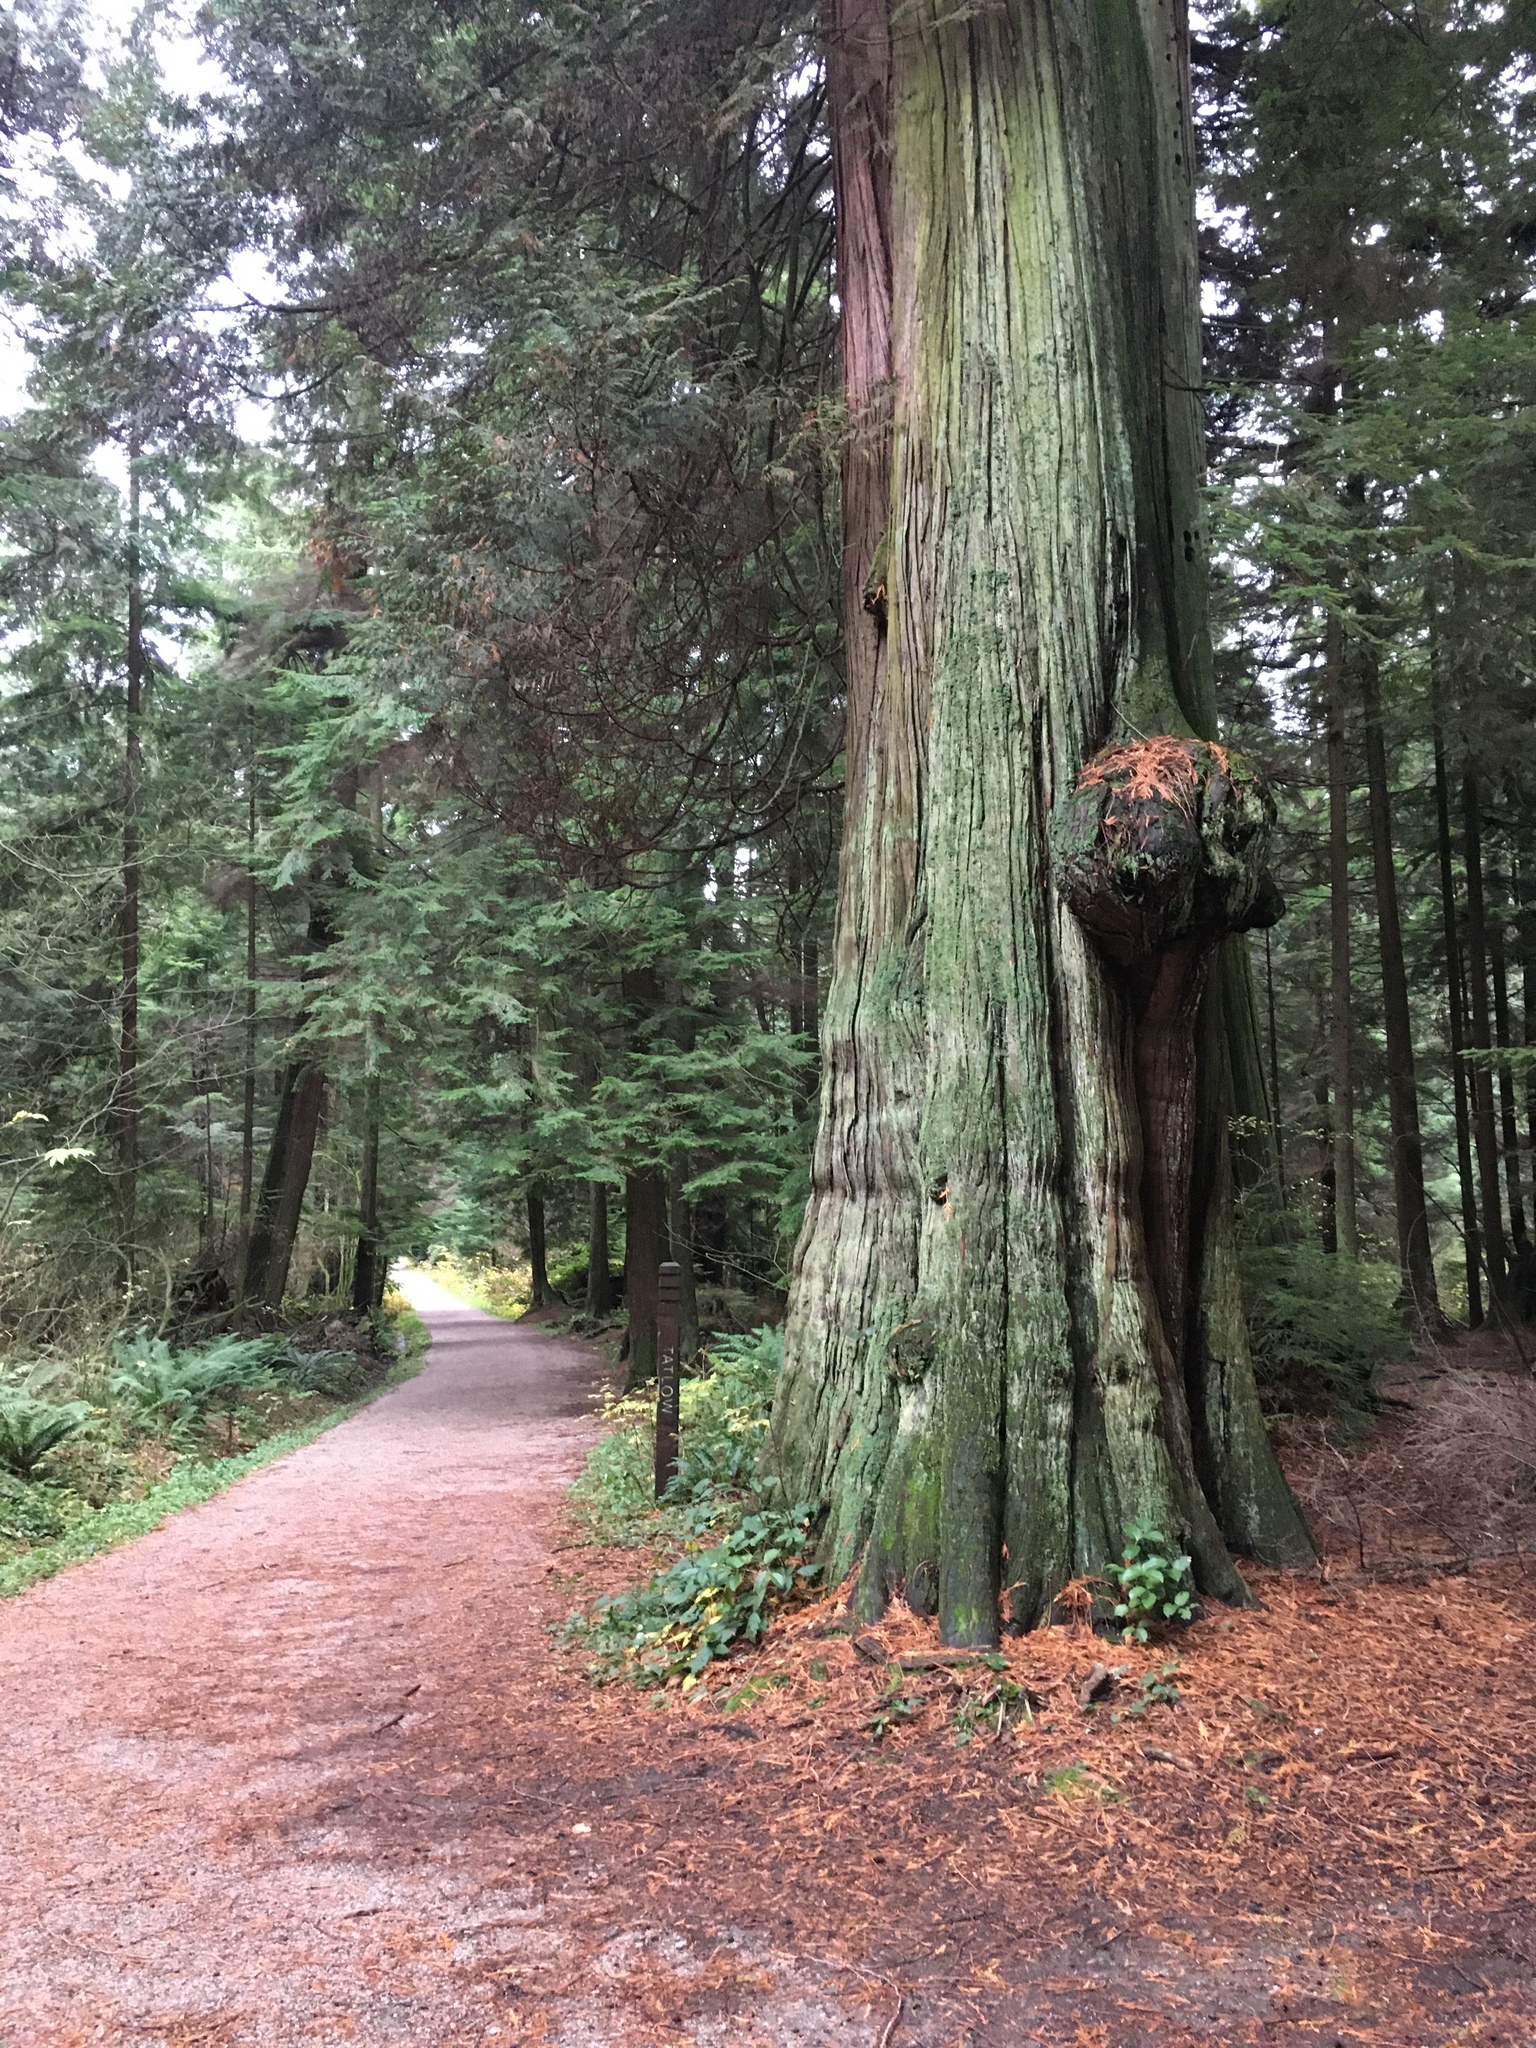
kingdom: Plantae
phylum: Tracheophyta
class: Pinopsida
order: Pinales
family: Cupressaceae
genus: Thuja
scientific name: Thuja plicata
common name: Western red-cedar
